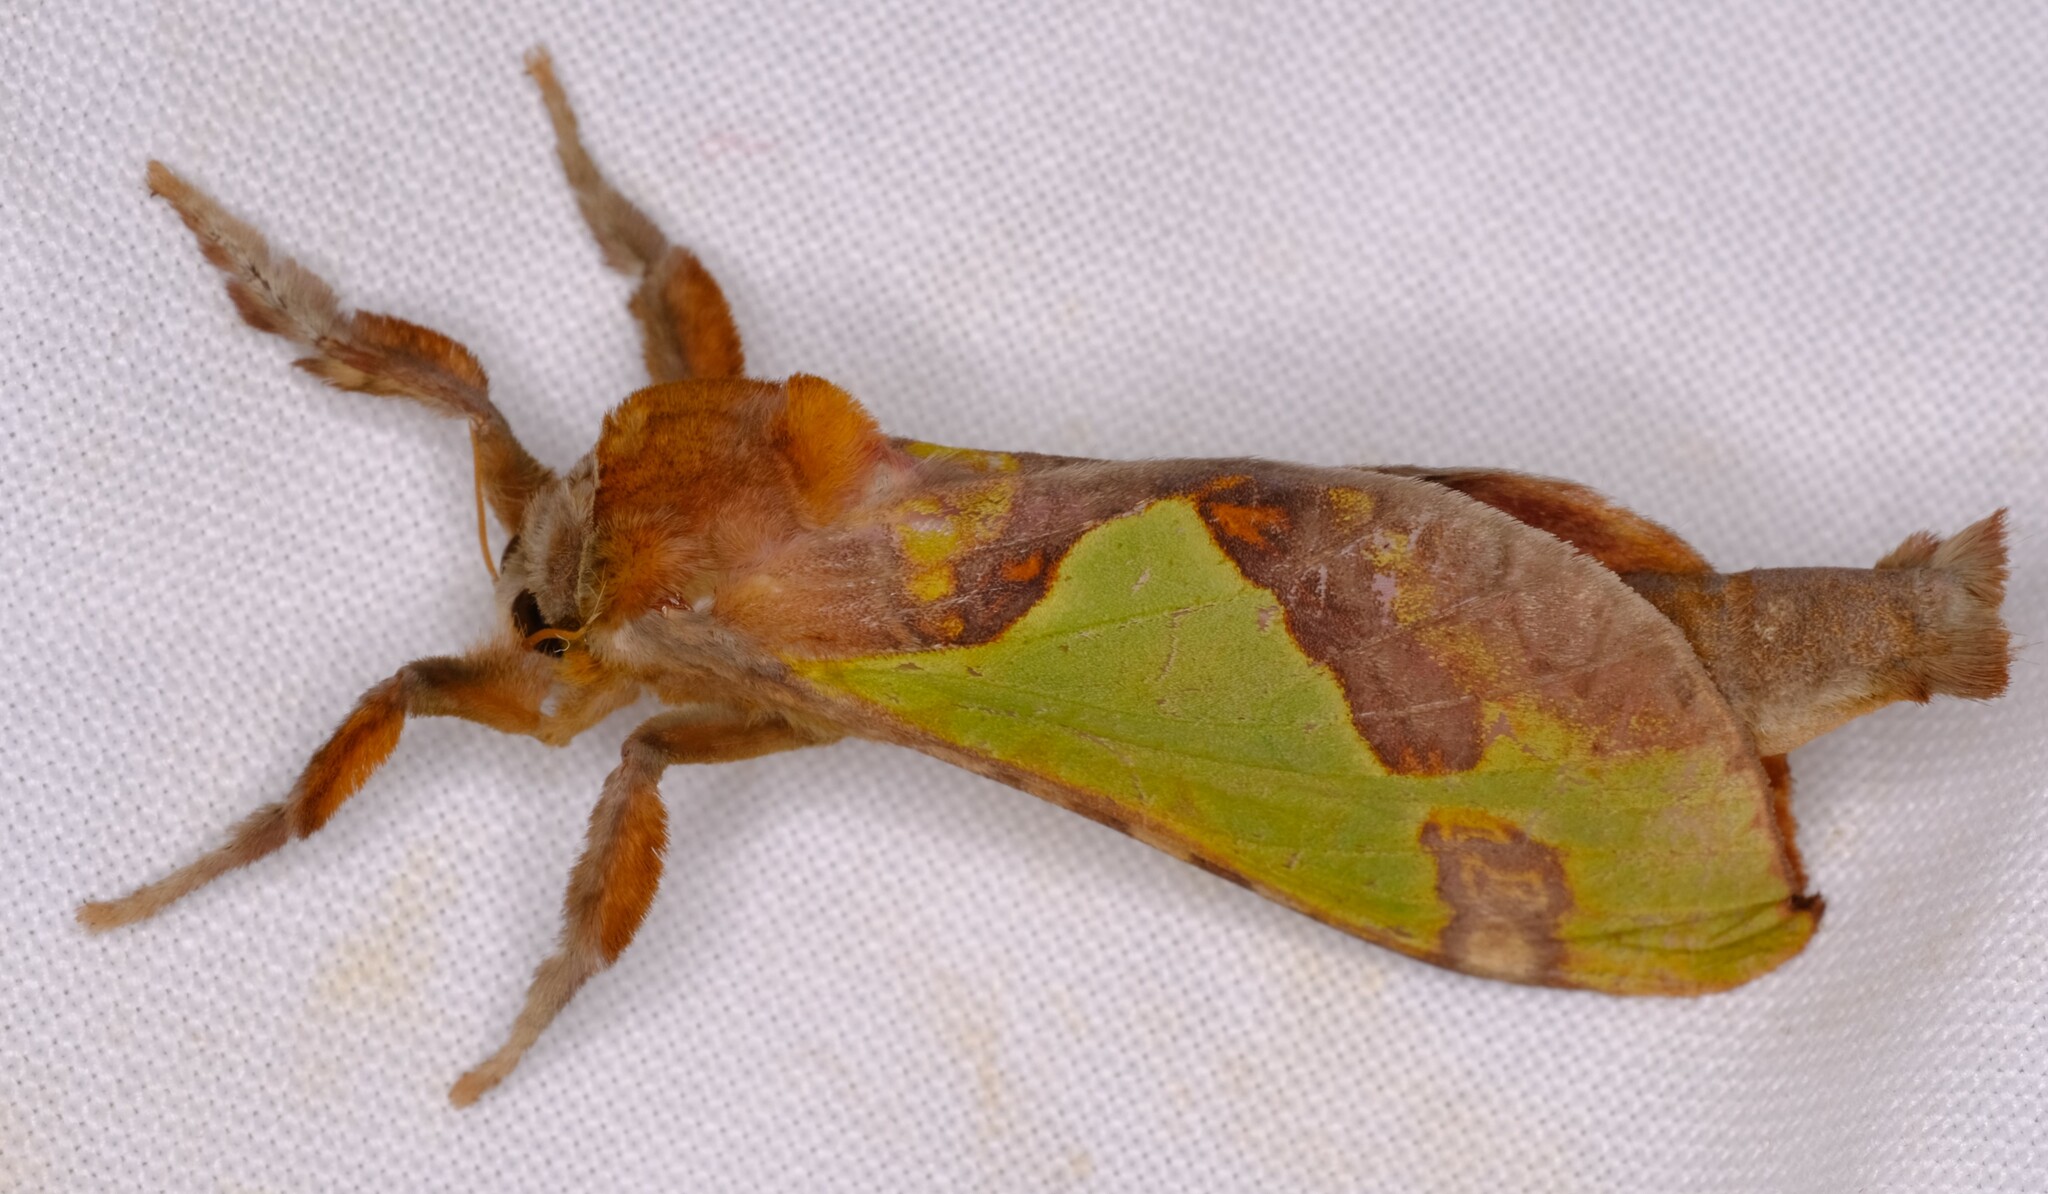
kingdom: Animalia
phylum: Arthropoda
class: Insecta
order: Lepidoptera
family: Hepialidae
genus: Aenetus
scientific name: Aenetus ligniveren
